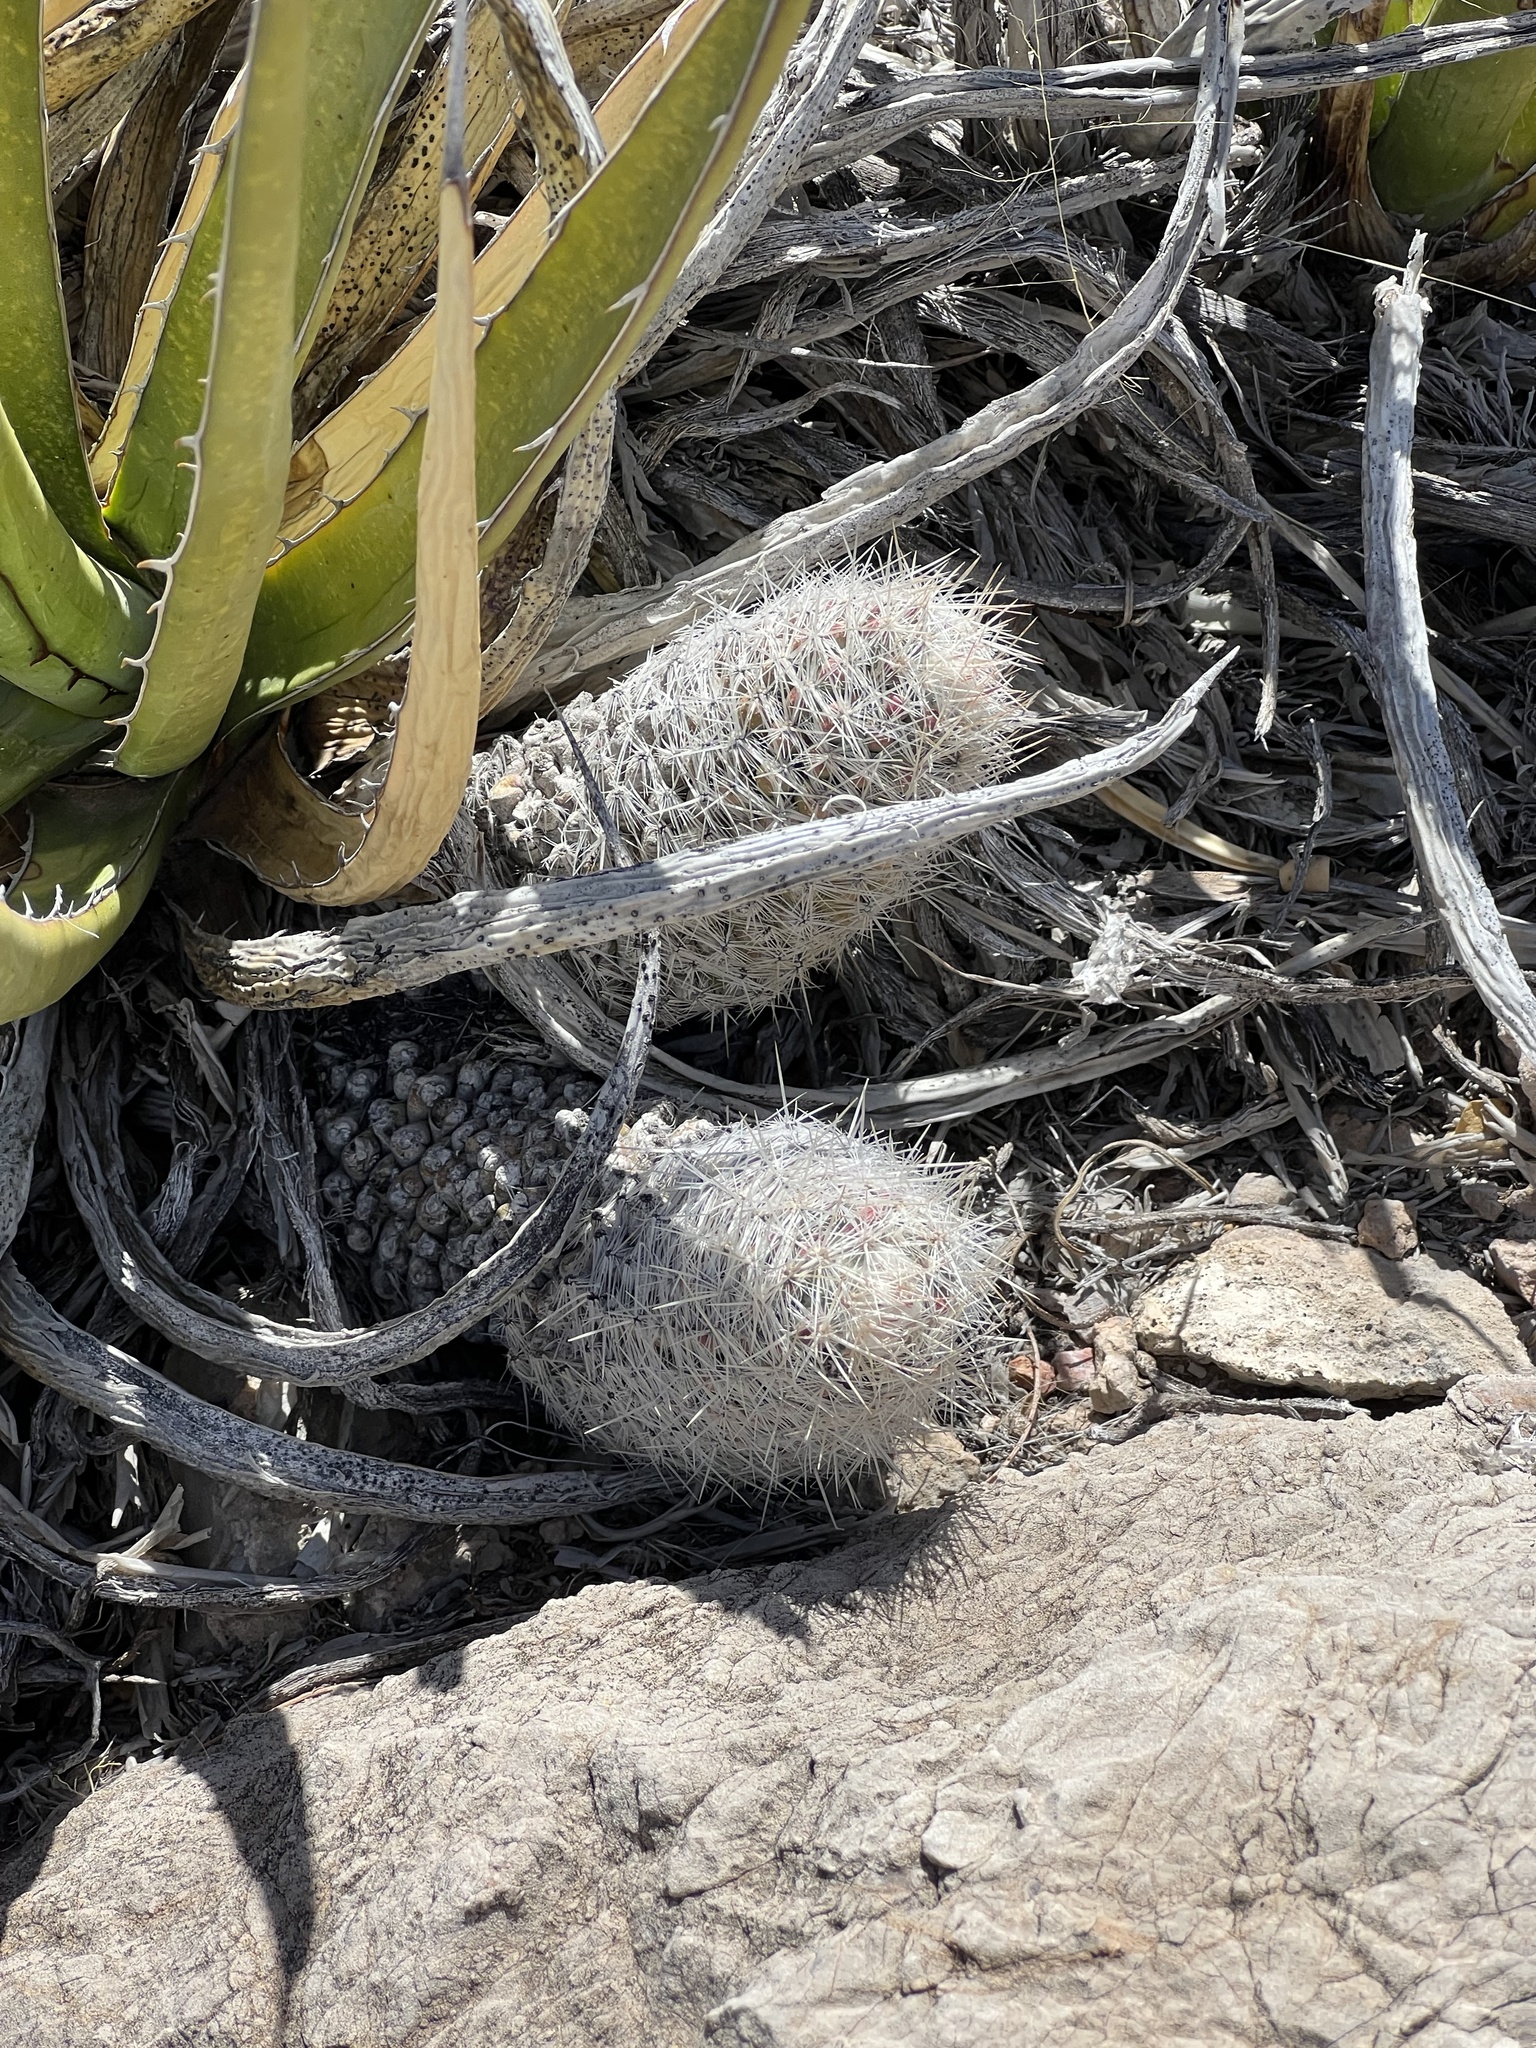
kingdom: Plantae
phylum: Tracheophyta
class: Magnoliopsida
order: Caryophyllales
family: Cactaceae
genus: Pelecyphora
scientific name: Pelecyphora tuberculosa
